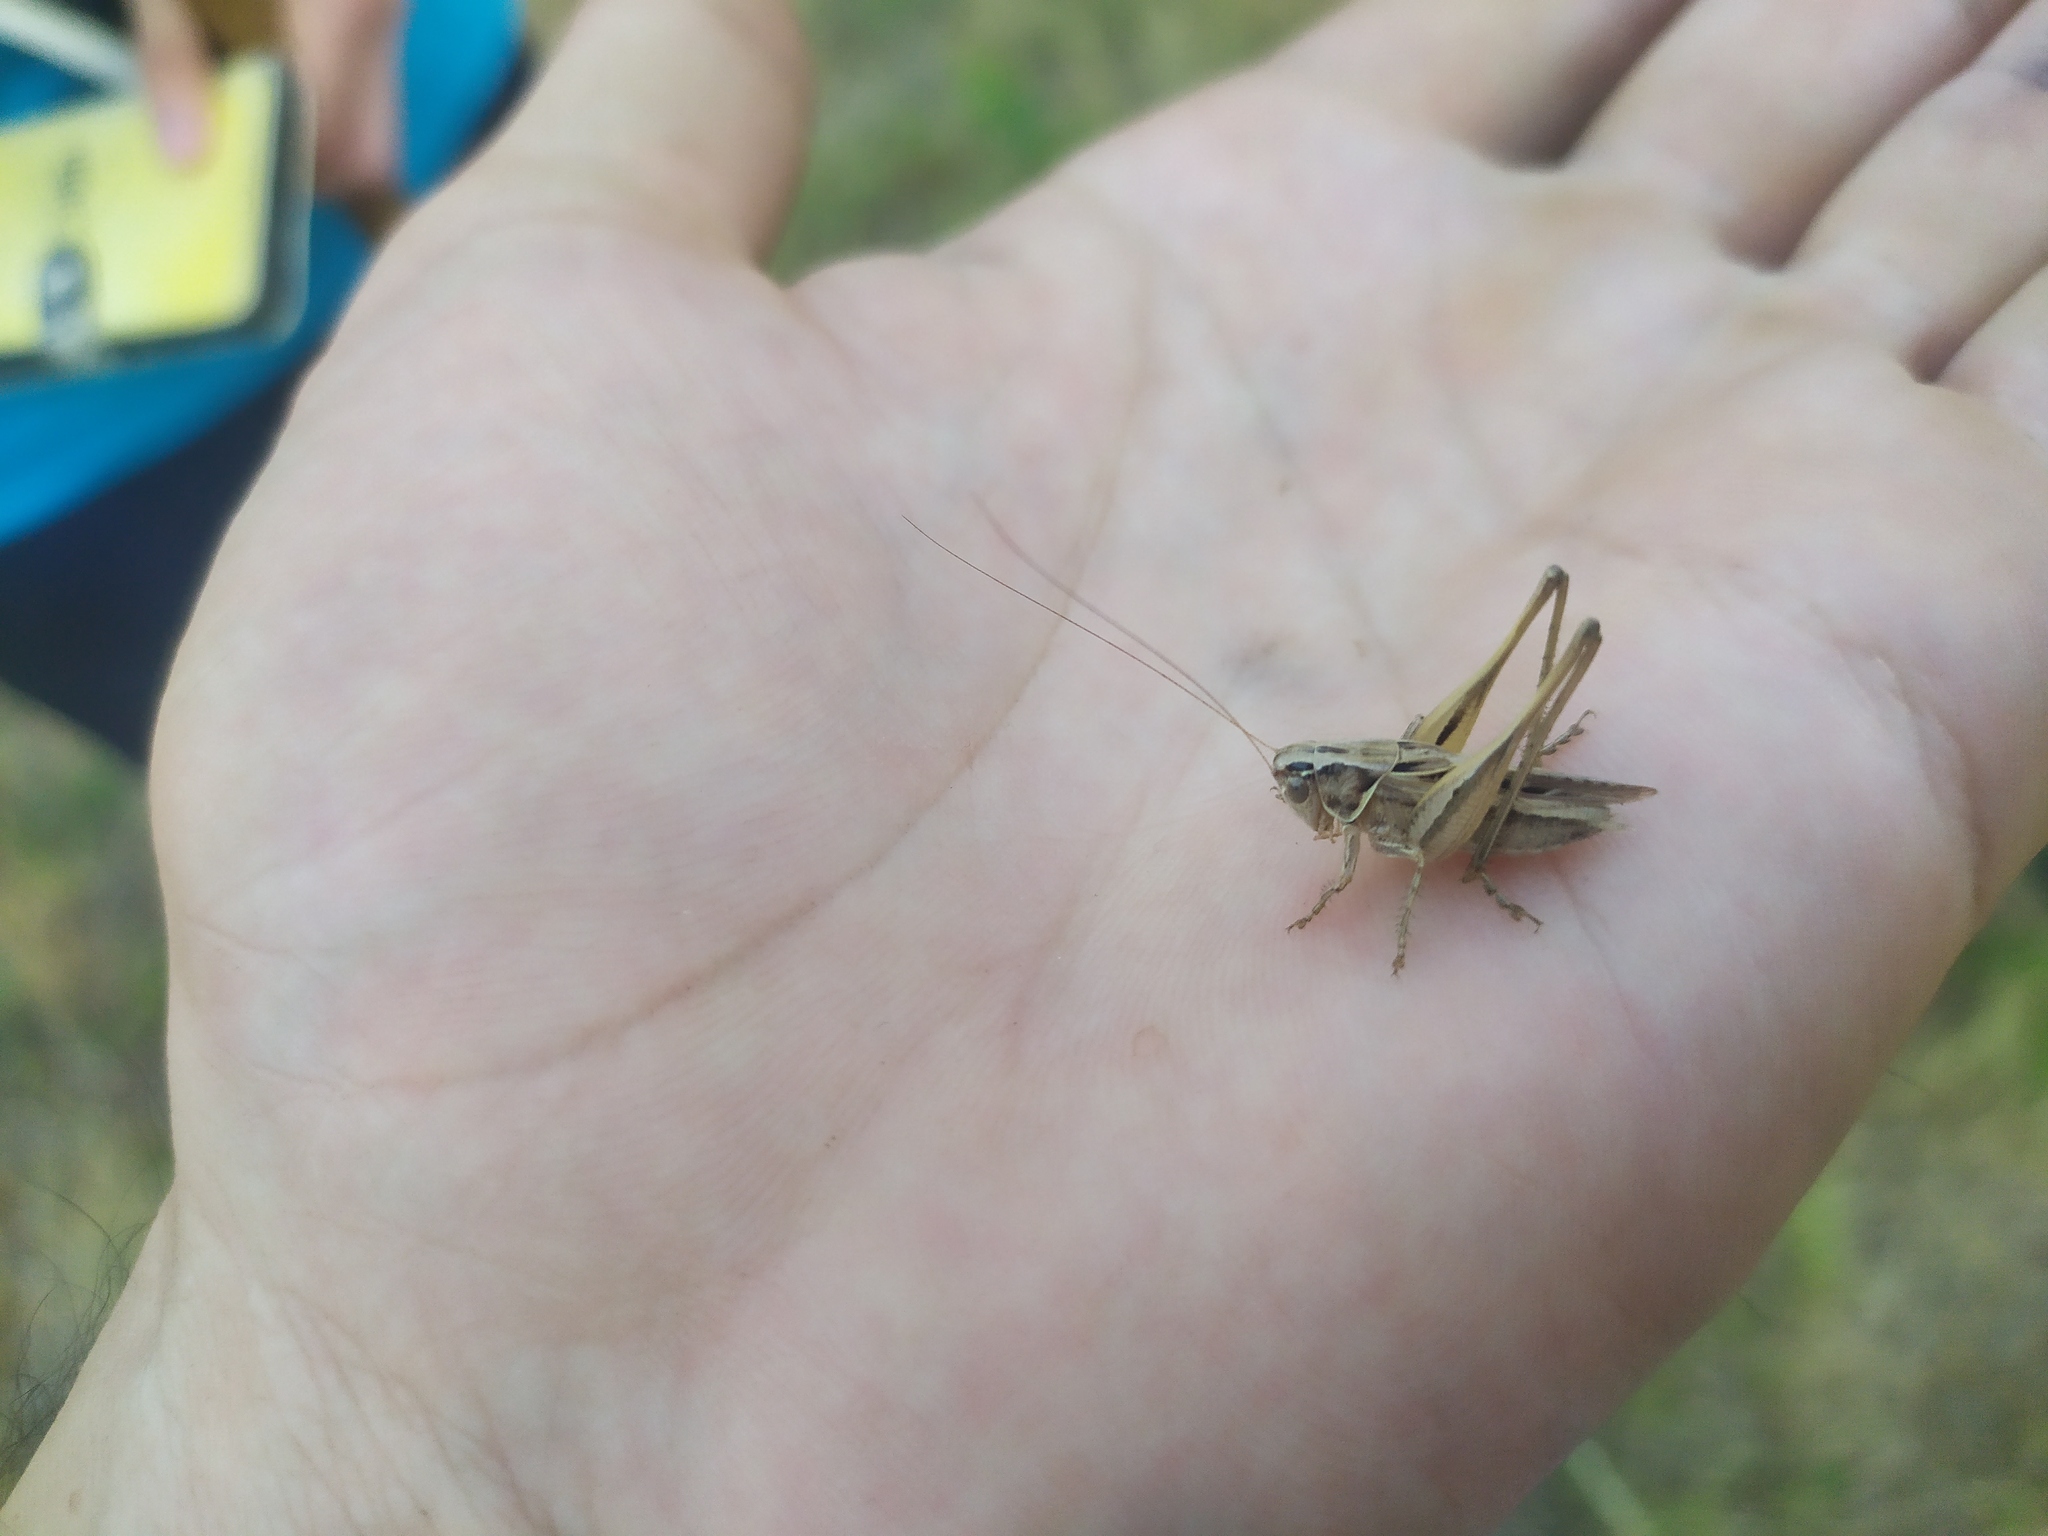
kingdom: Animalia
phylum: Arthropoda
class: Insecta
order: Orthoptera
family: Tettigoniidae
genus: Tessellana
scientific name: Tessellana tessellata
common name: Grasshopper
